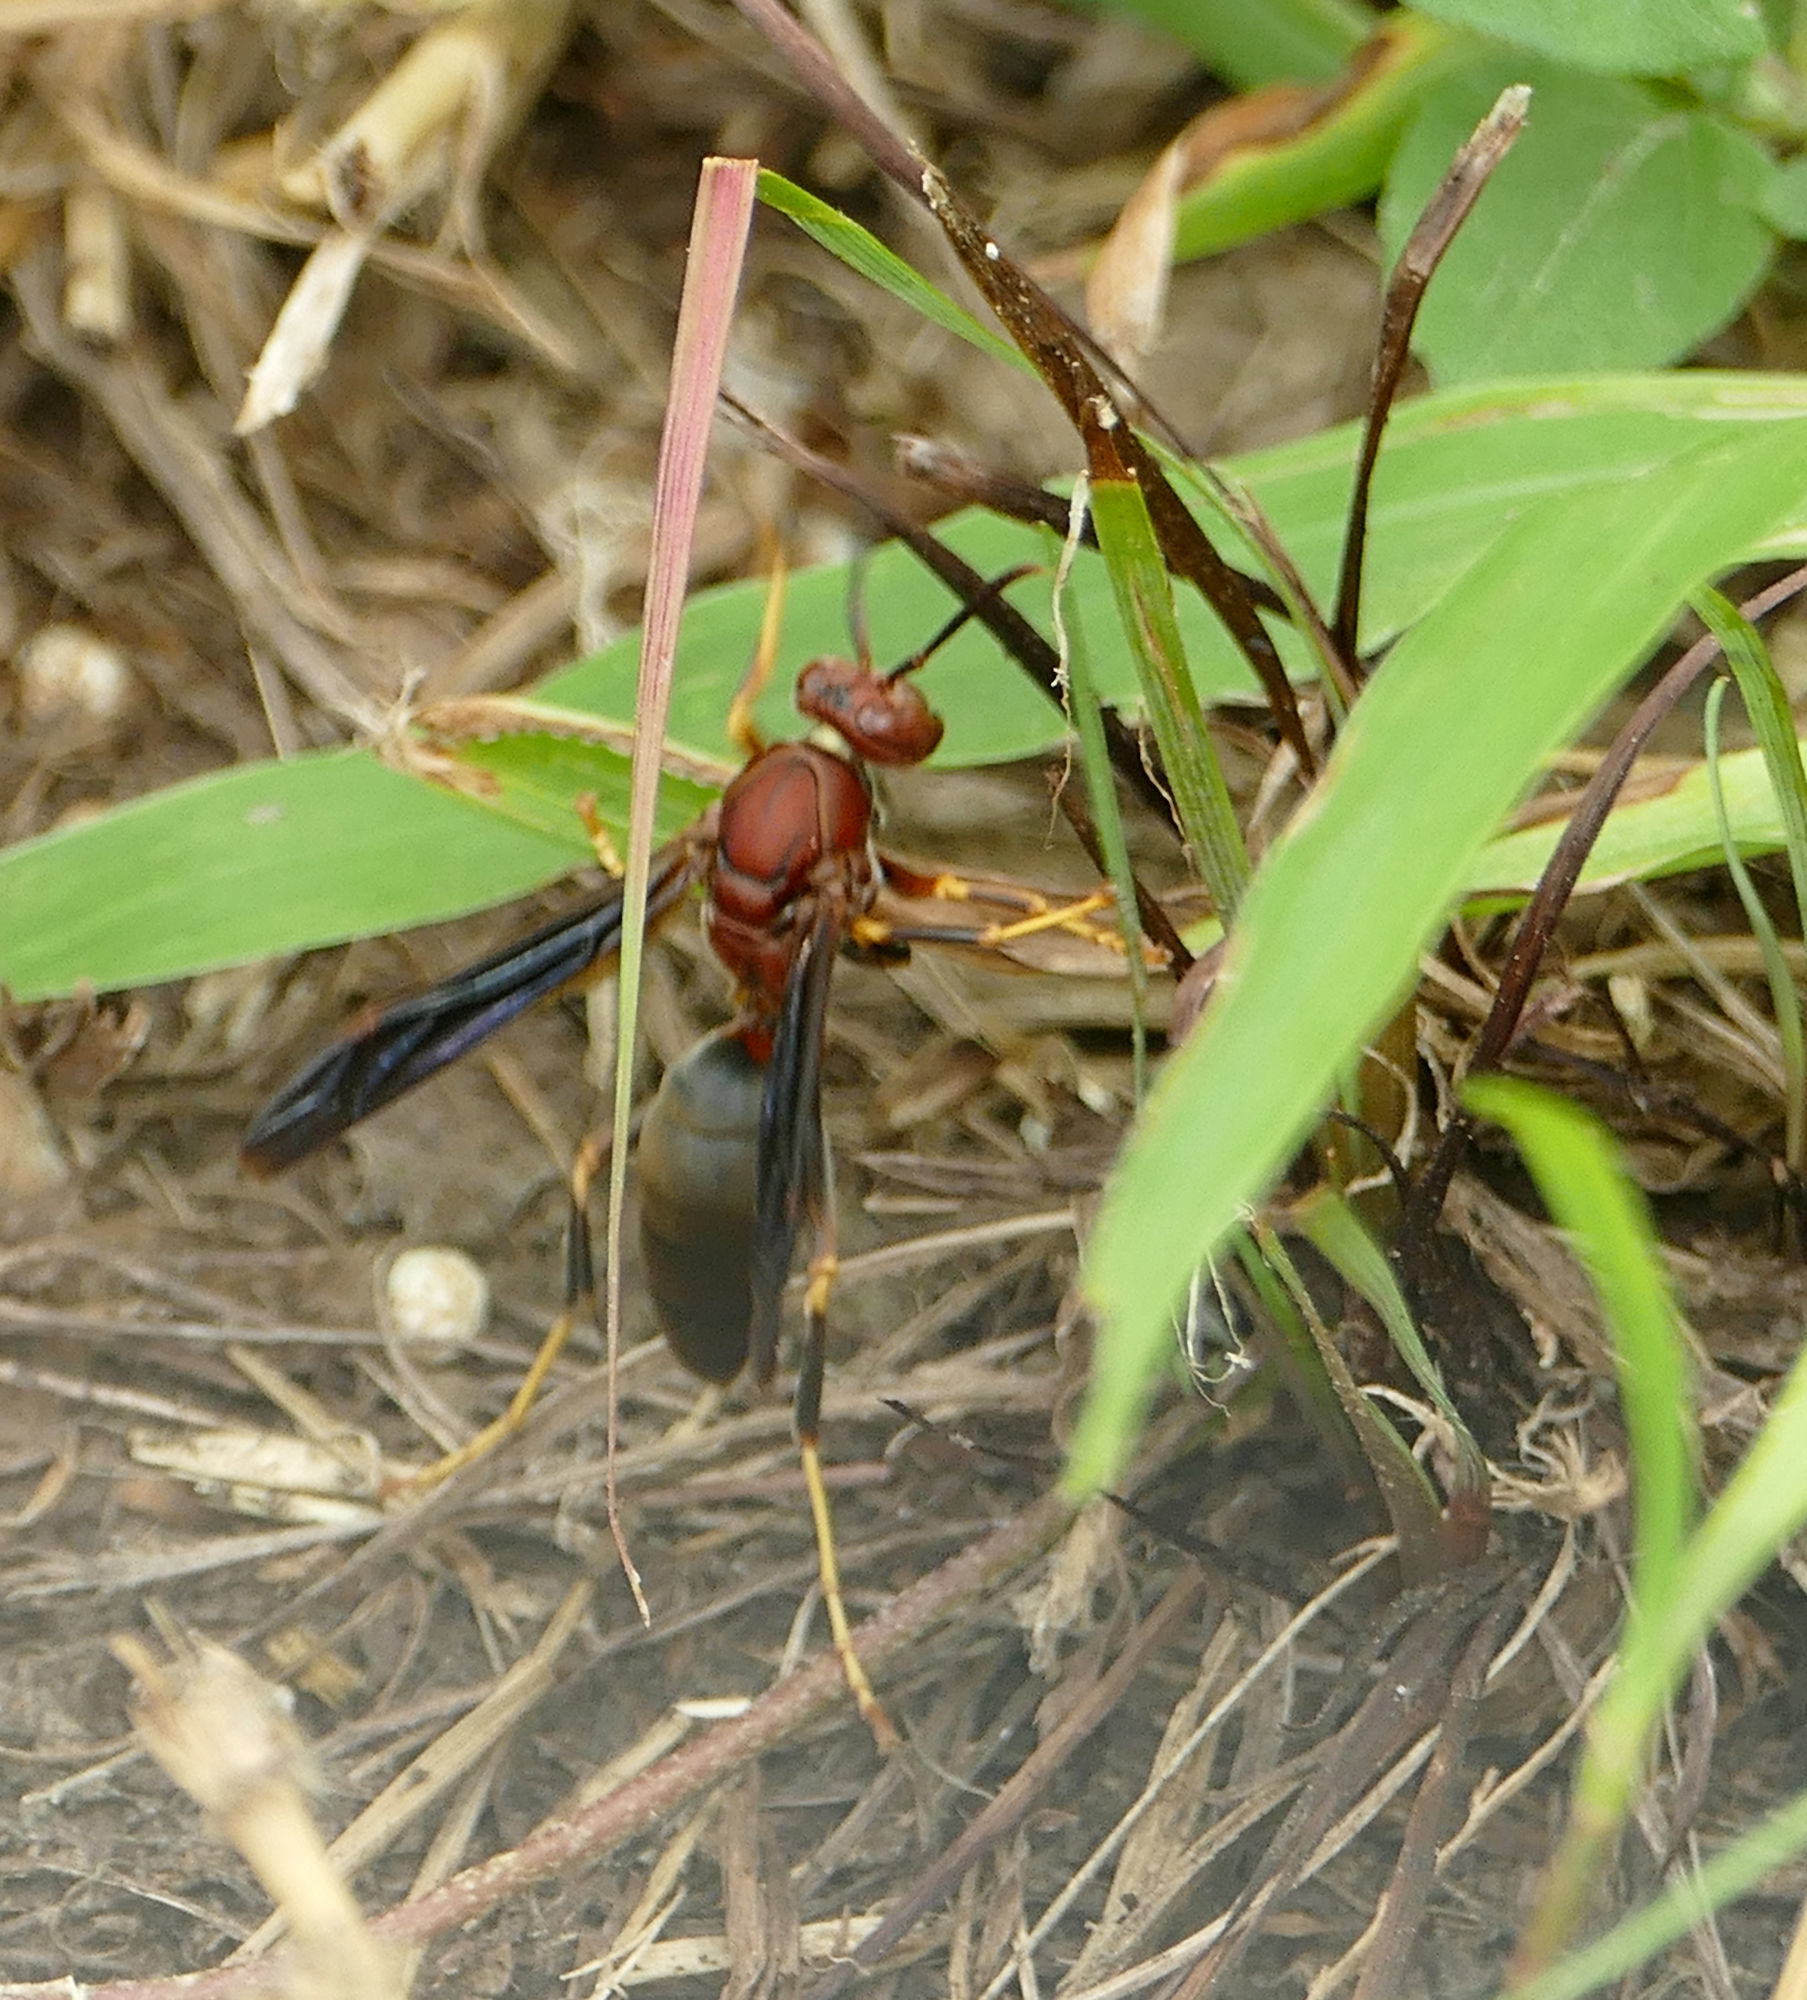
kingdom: Animalia
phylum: Arthropoda
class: Insecta
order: Hymenoptera
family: Eumenidae
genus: Polistes
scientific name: Polistes metricus
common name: Metric paper wasp
